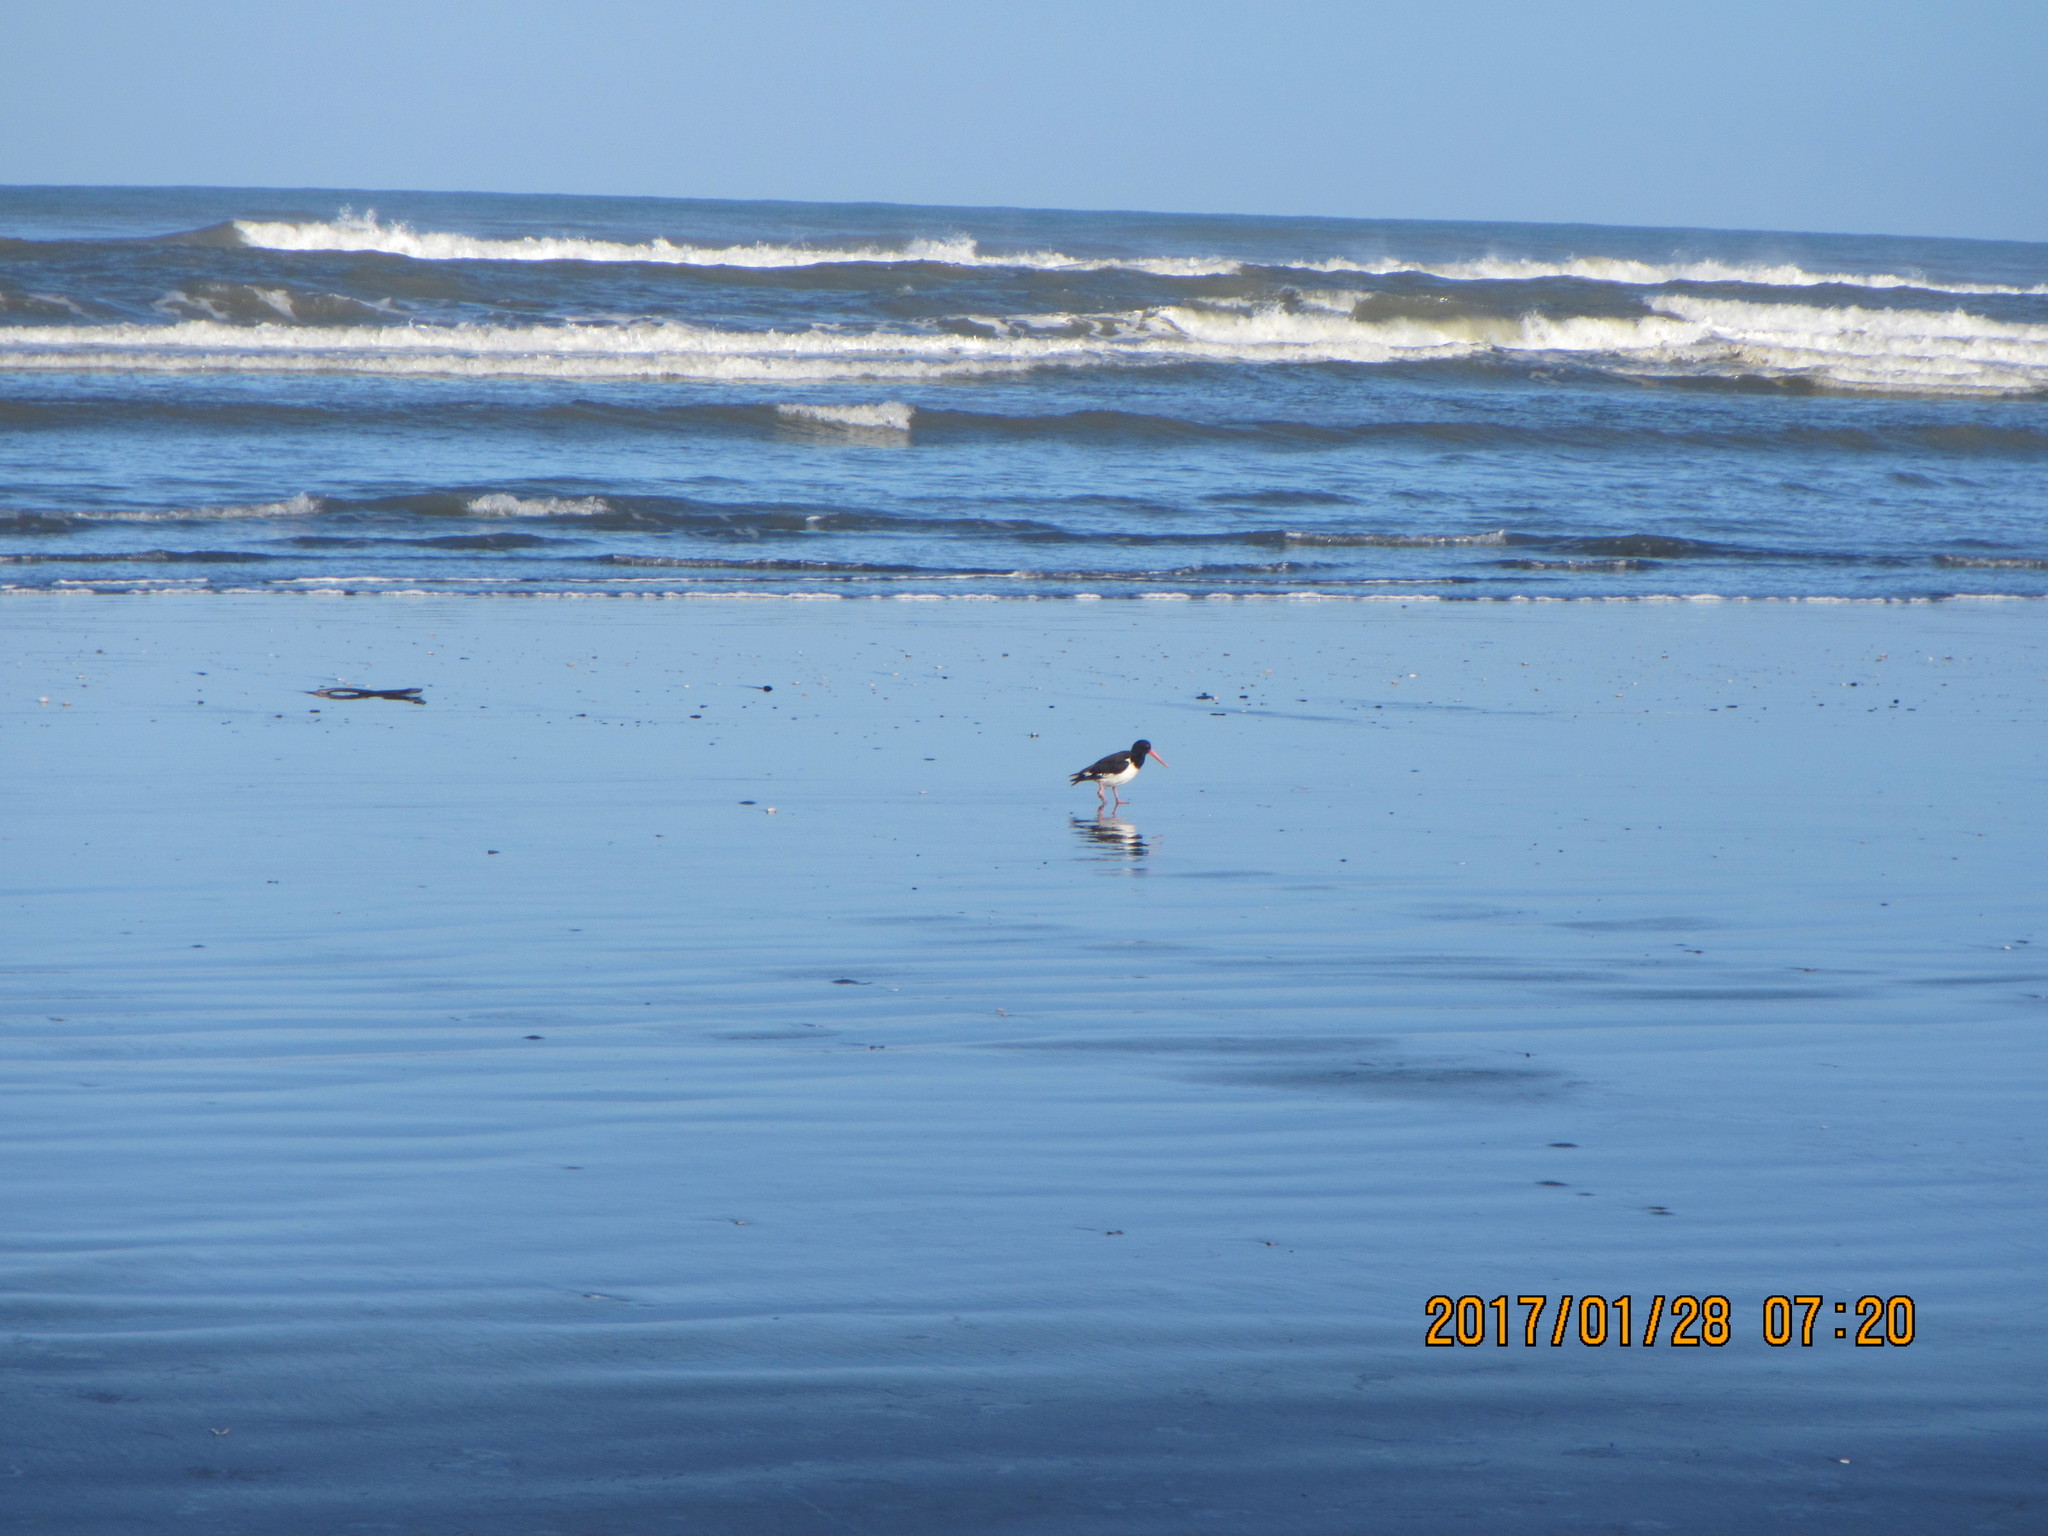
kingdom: Animalia
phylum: Chordata
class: Aves
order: Charadriiformes
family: Haematopodidae
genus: Haematopus
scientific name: Haematopus finschi
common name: South island oystercatcher
